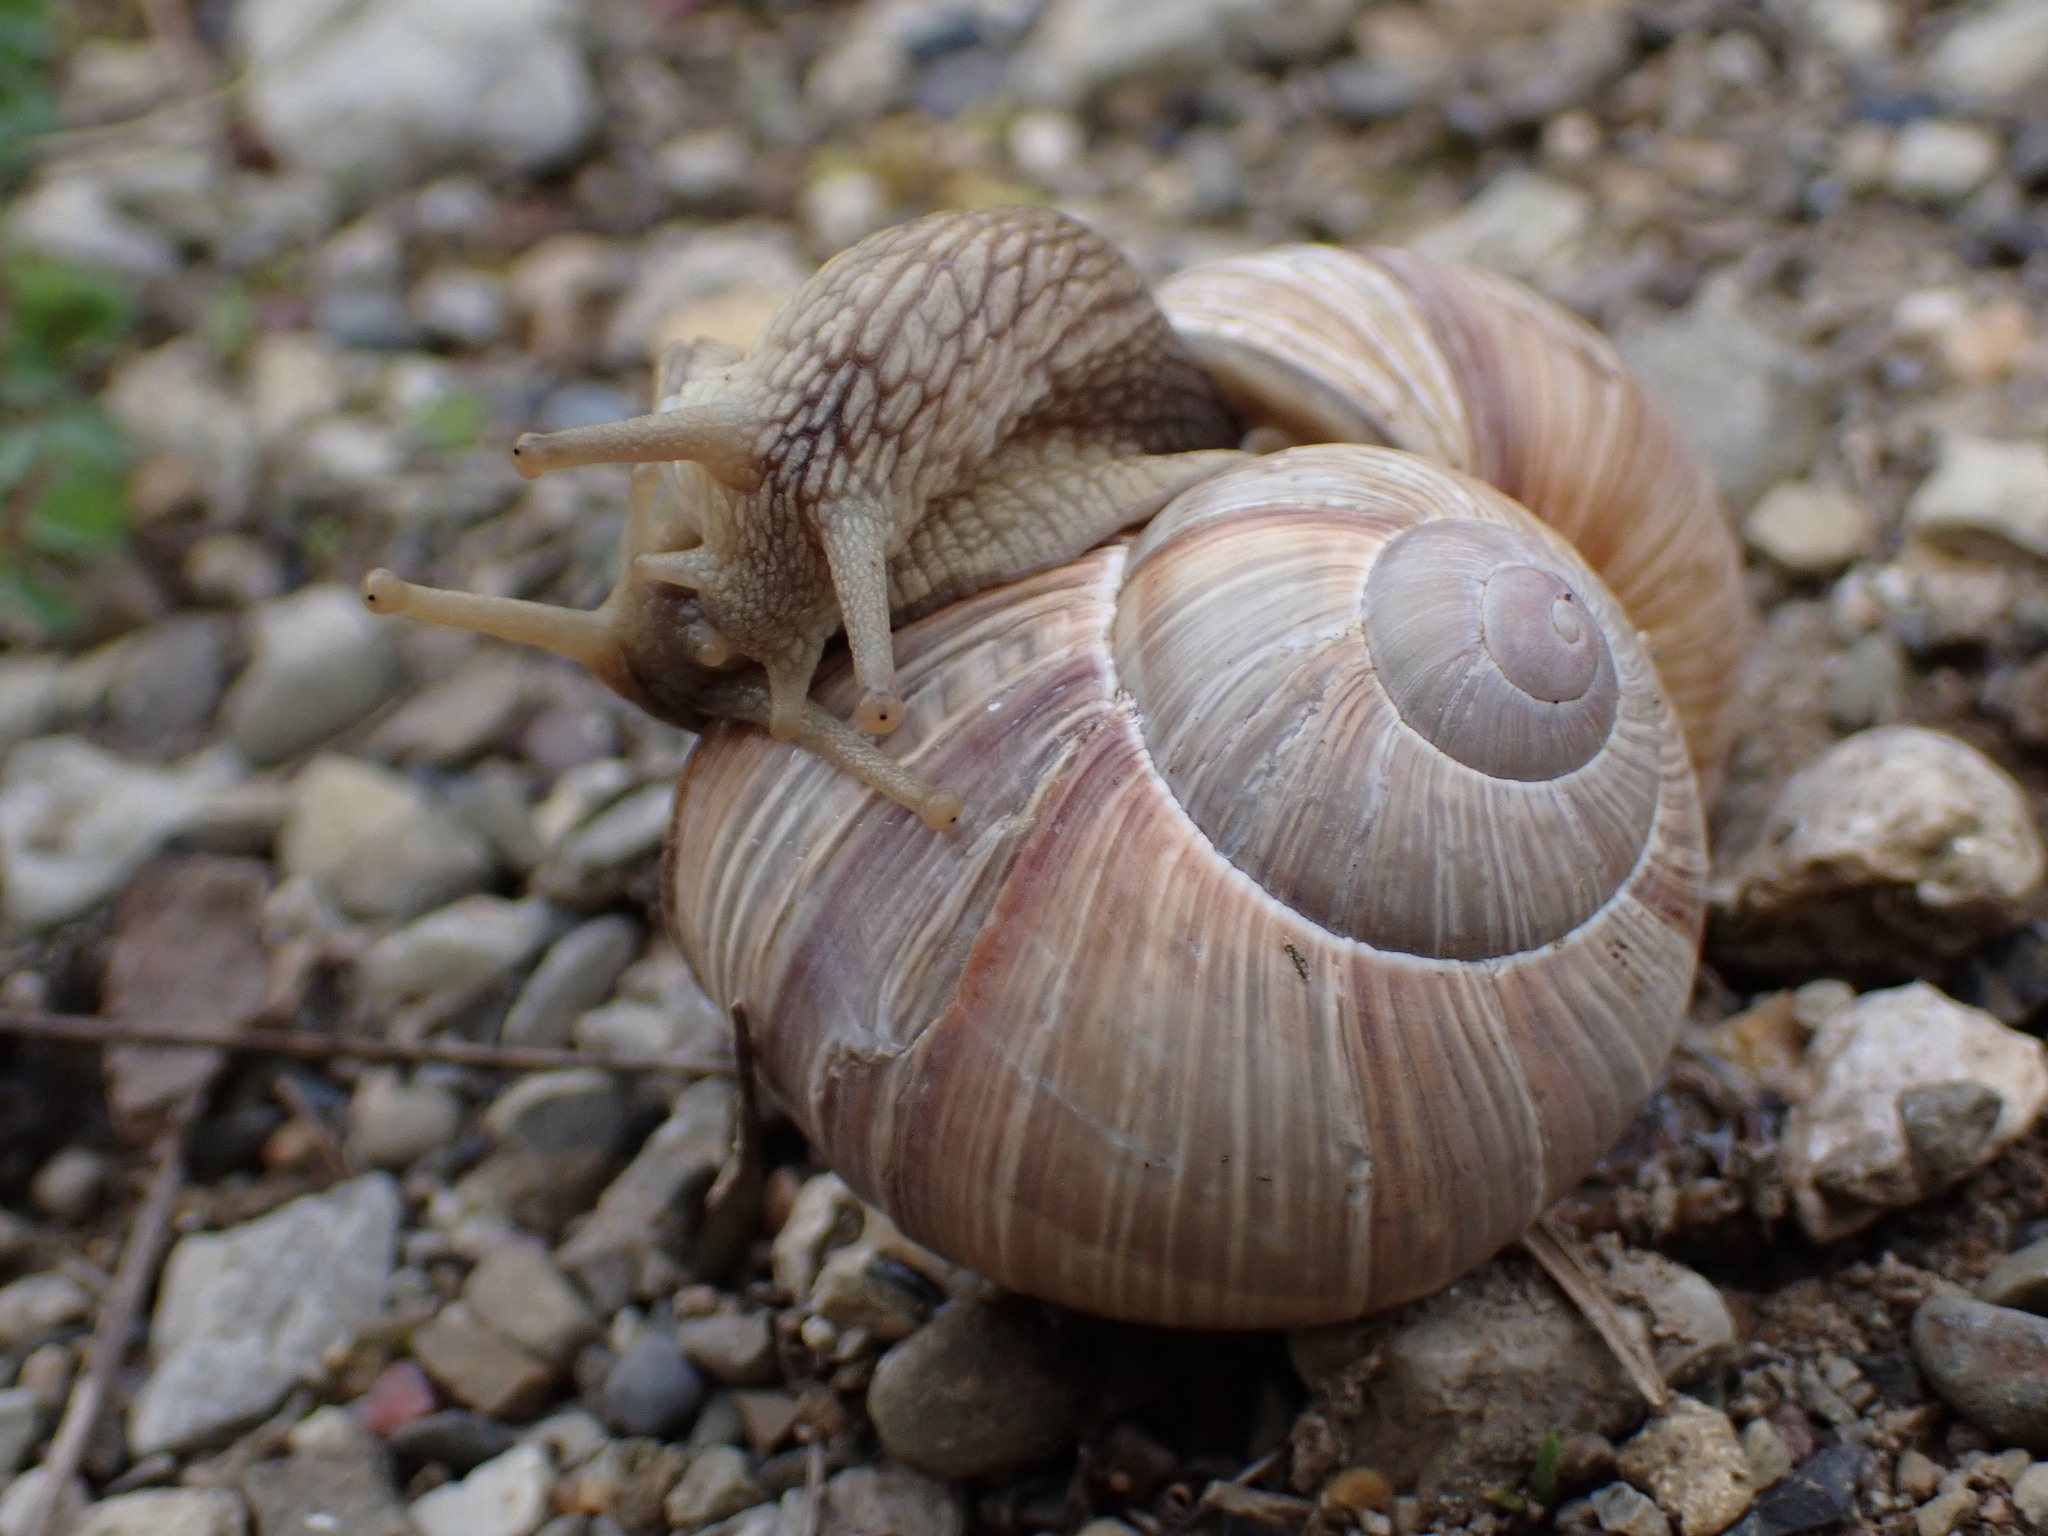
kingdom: Animalia
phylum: Mollusca
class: Gastropoda
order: Stylommatophora
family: Helicidae
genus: Helix
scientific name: Helix pomatia
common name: Roman snail
